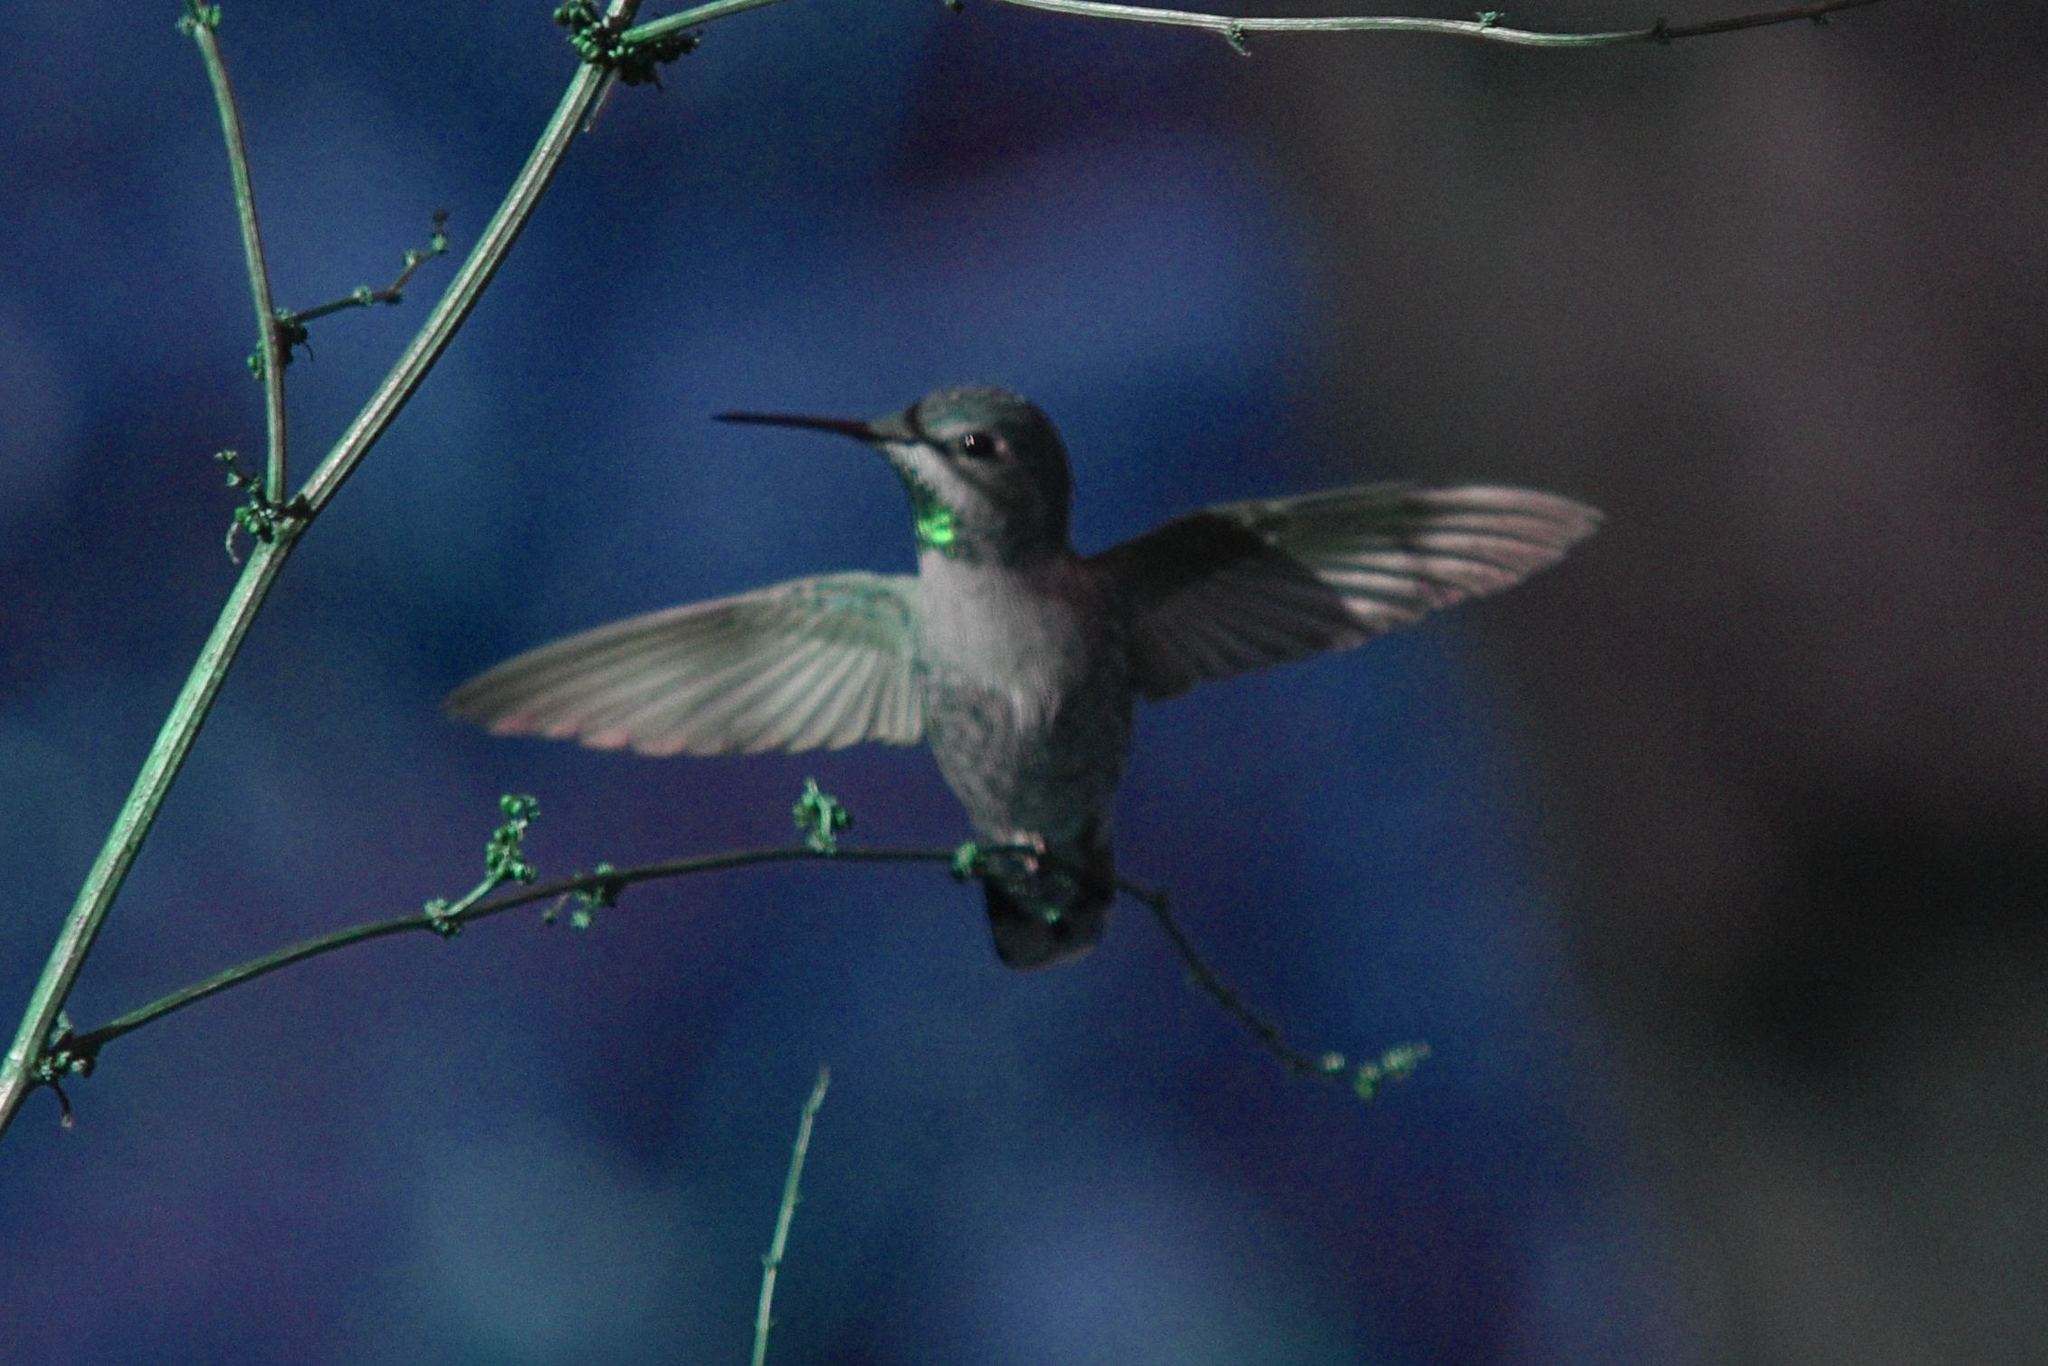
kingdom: Animalia
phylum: Chordata
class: Aves
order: Apodiformes
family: Trochilidae
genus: Calypte
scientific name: Calypte anna
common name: Anna's hummingbird
